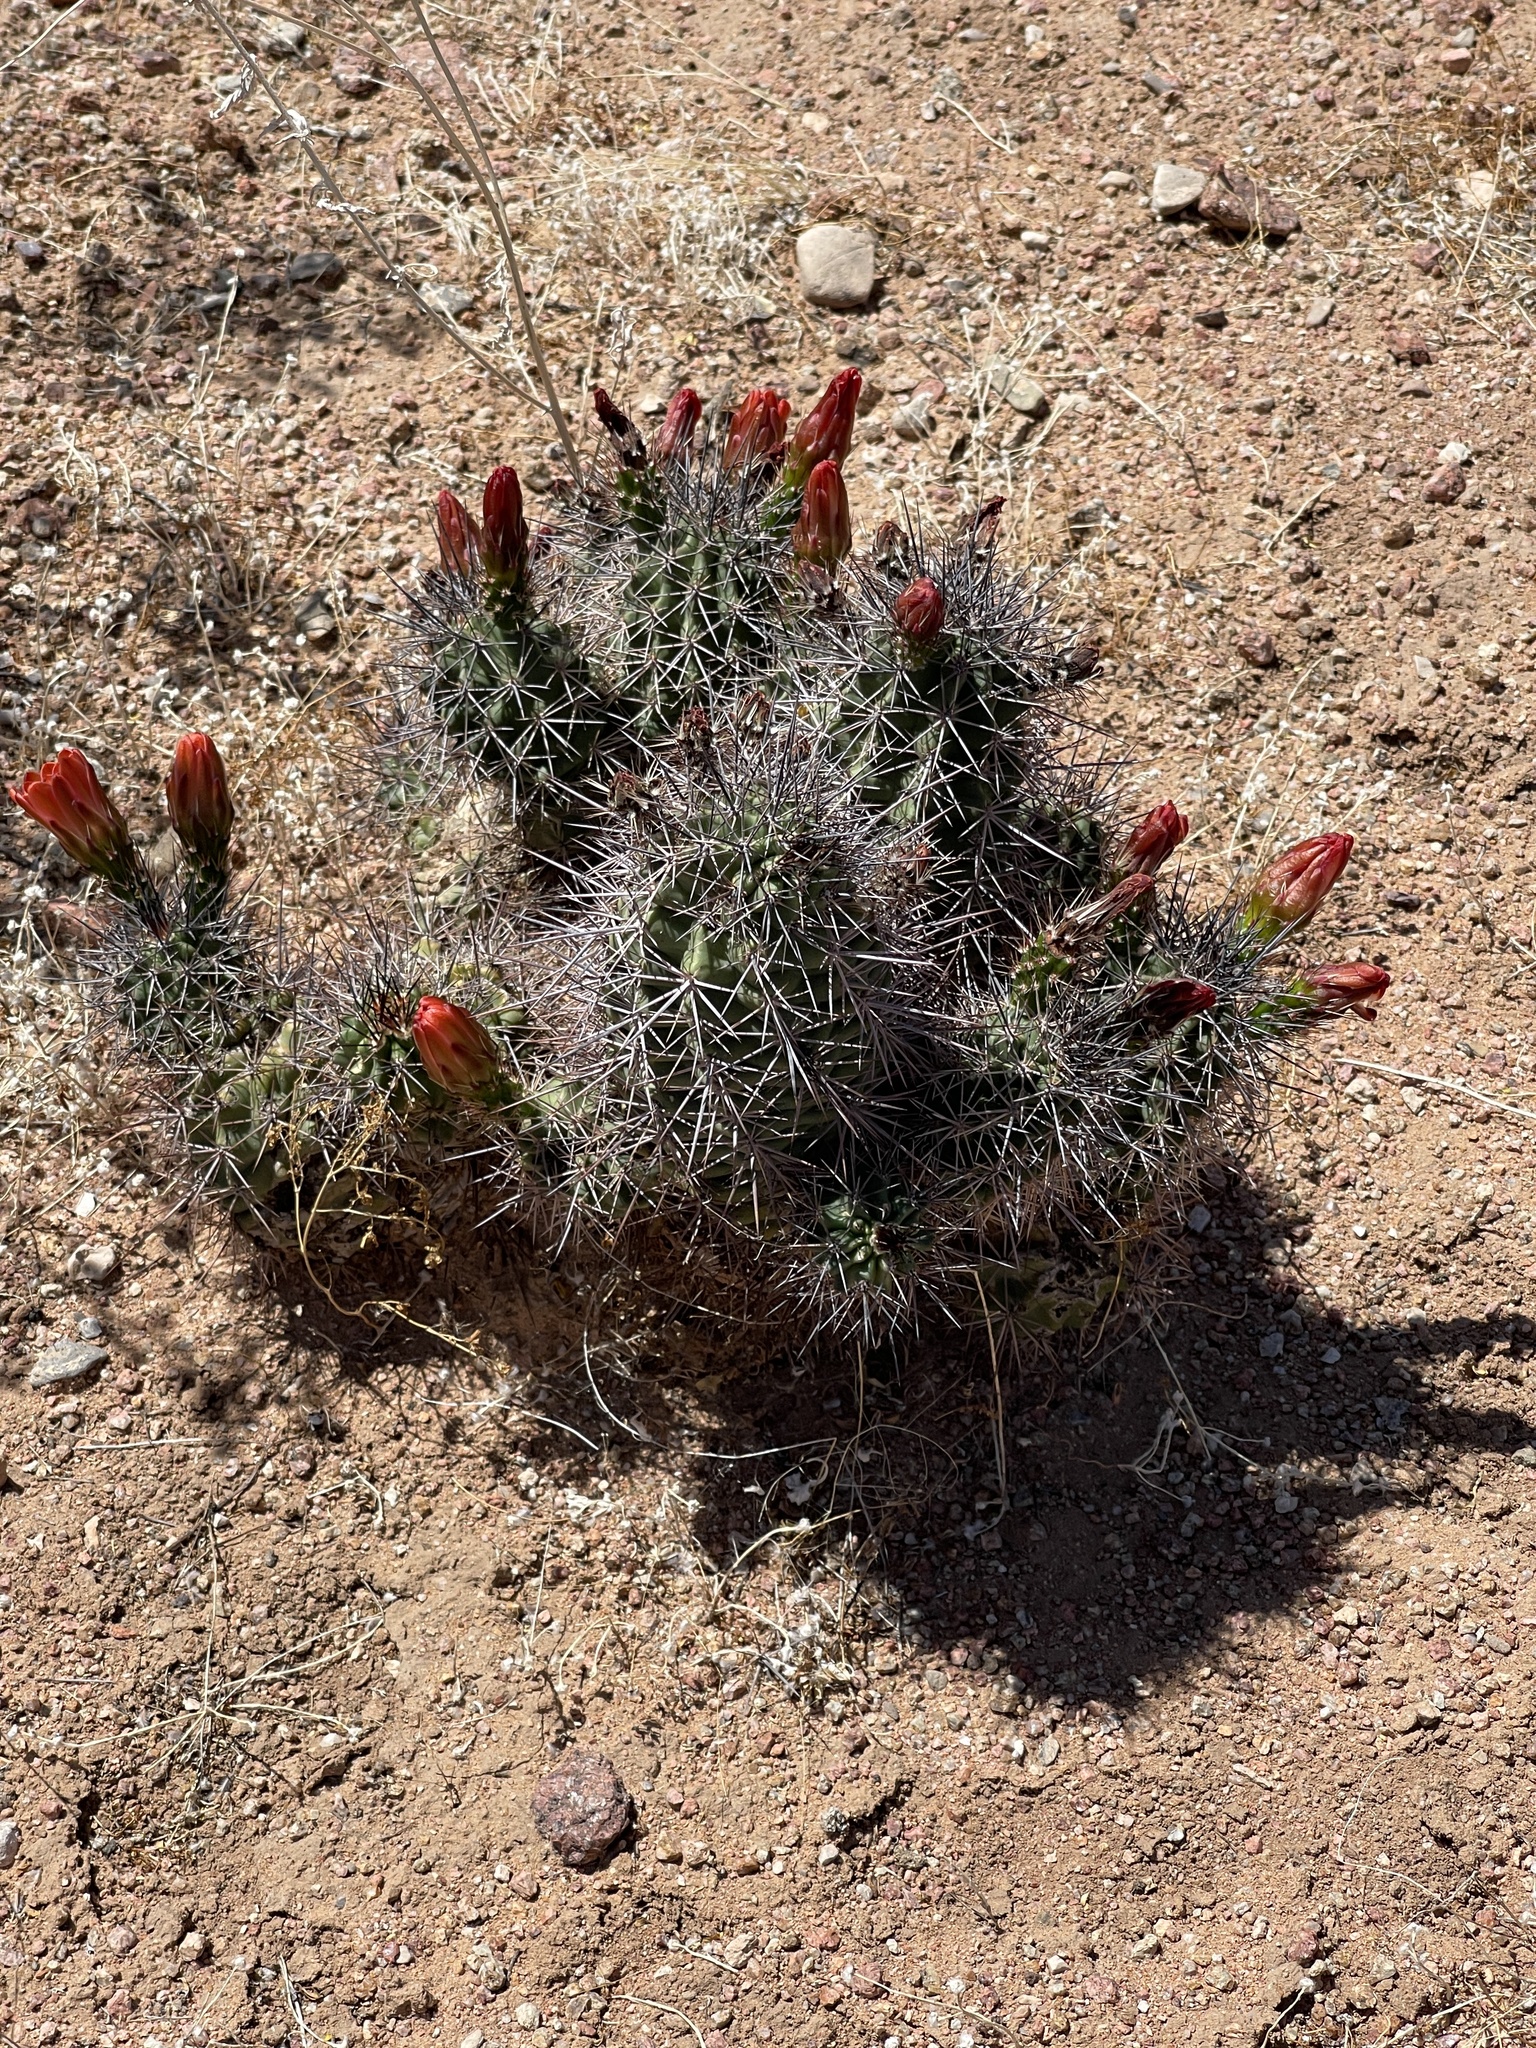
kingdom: Plantae
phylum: Tracheophyta
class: Magnoliopsida
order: Caryophyllales
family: Cactaceae
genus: Echinocereus
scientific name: Echinocereus coccineus
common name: Scarlet hedgehog cactus
